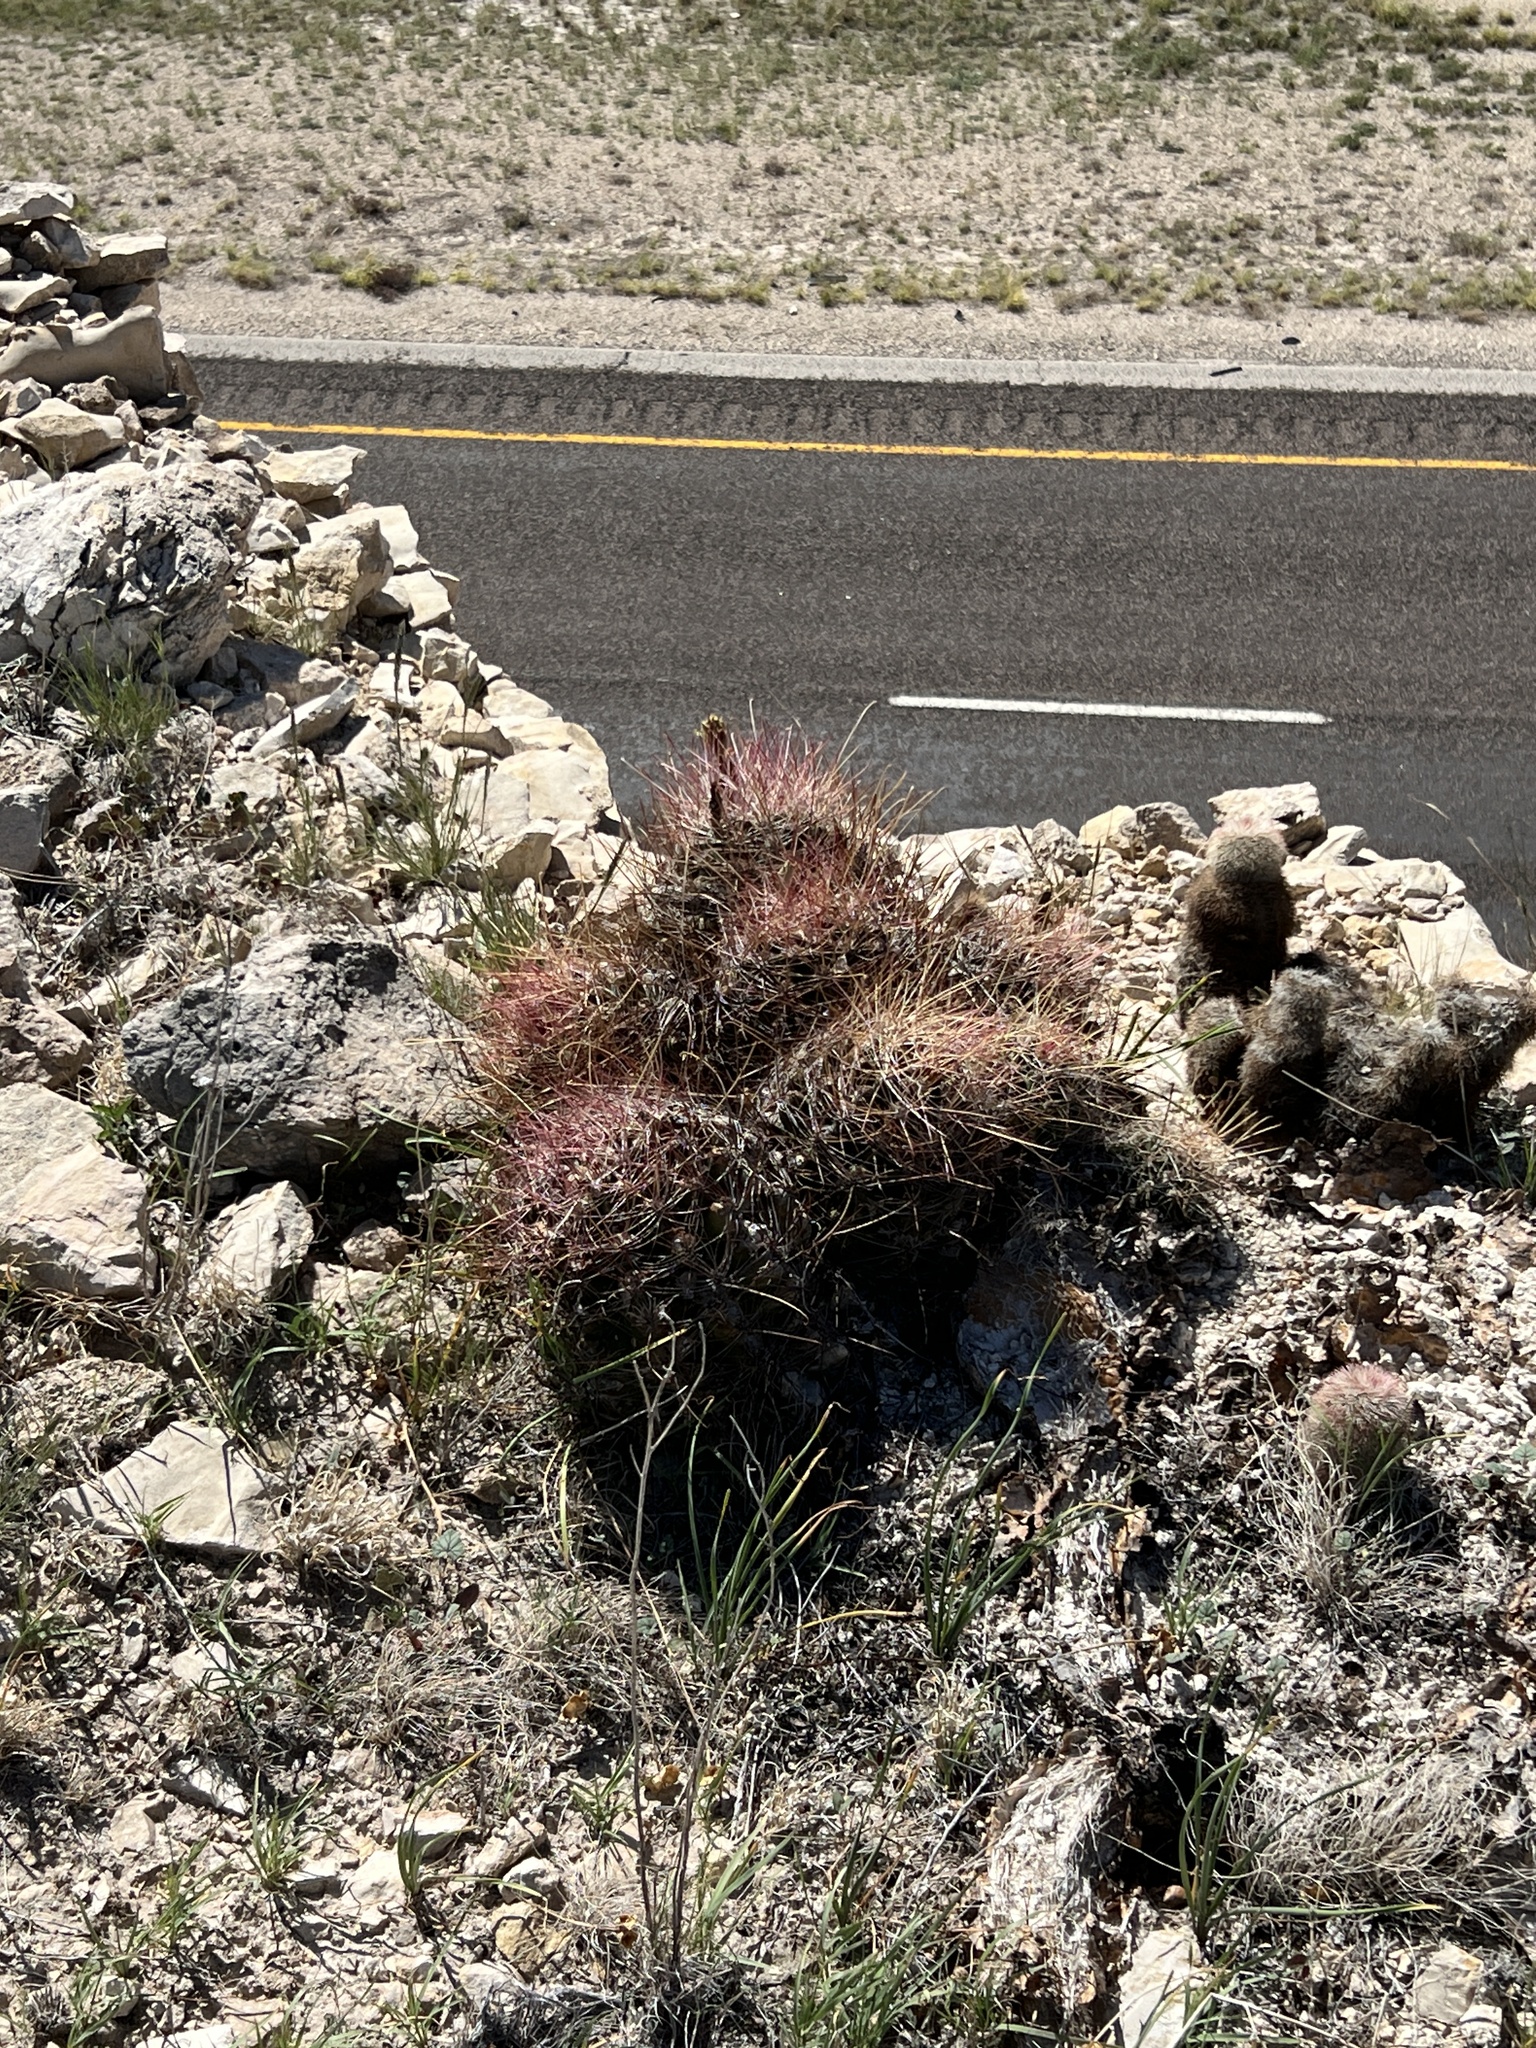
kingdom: Plantae
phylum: Tracheophyta
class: Magnoliopsida
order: Caryophyllales
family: Cactaceae
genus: Bisnaga
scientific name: Bisnaga hamatacantha
